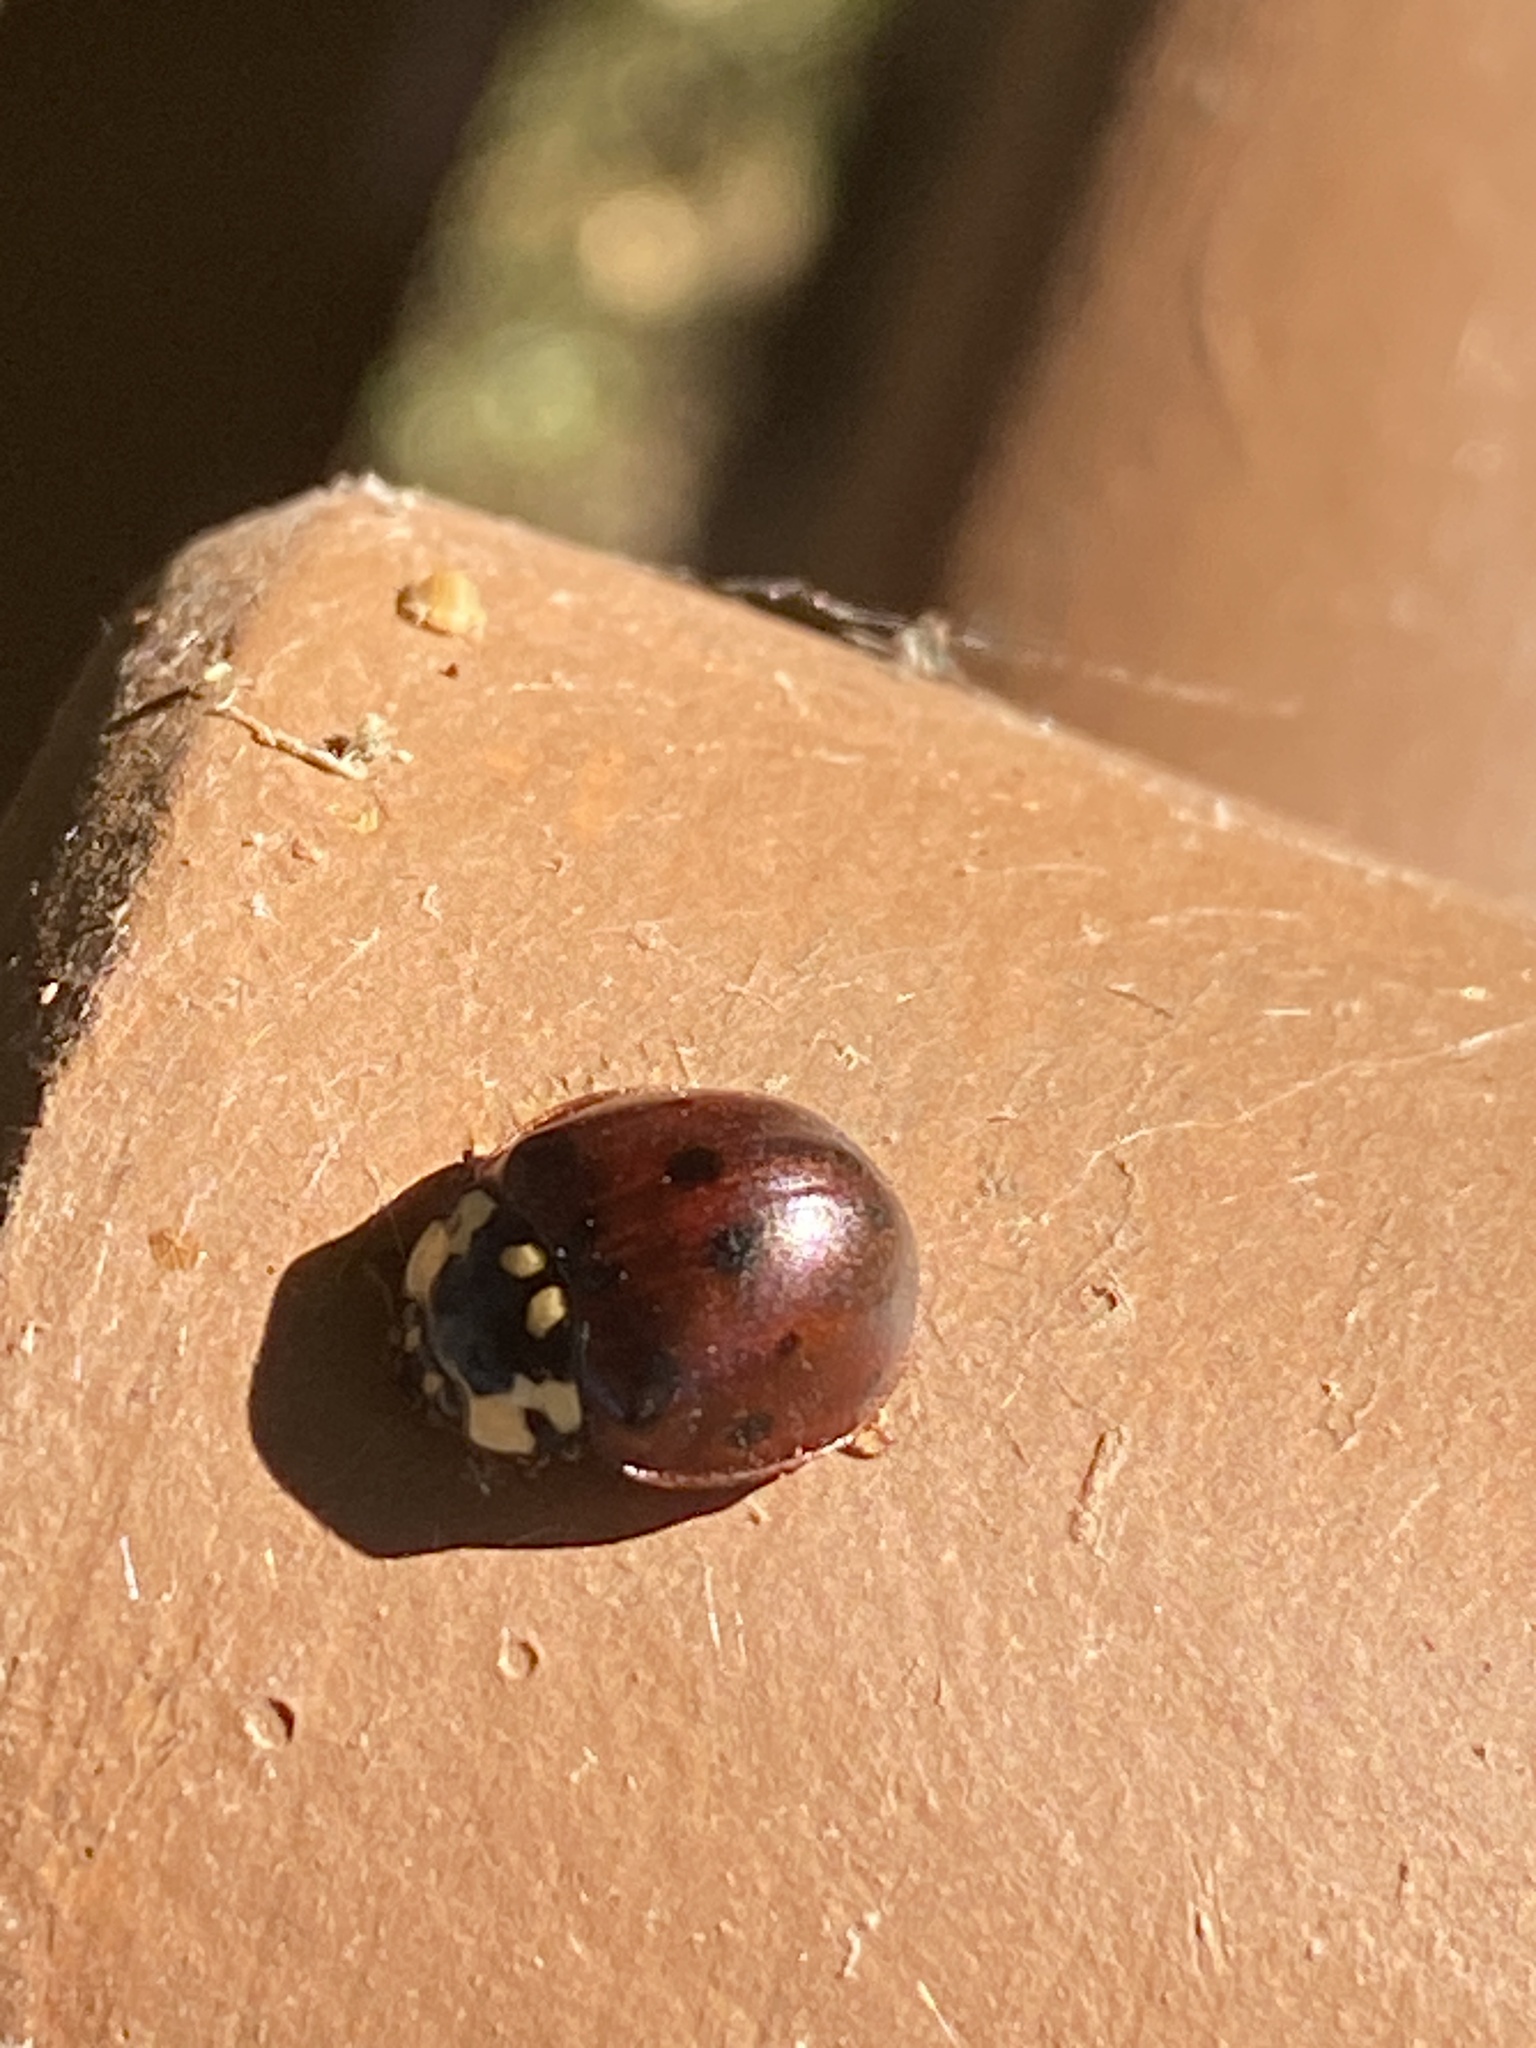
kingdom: Animalia
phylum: Arthropoda
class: Insecta
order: Coleoptera
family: Coccinellidae
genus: Anatis
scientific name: Anatis labiculata
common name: Fifteen-spotted lady beetle
